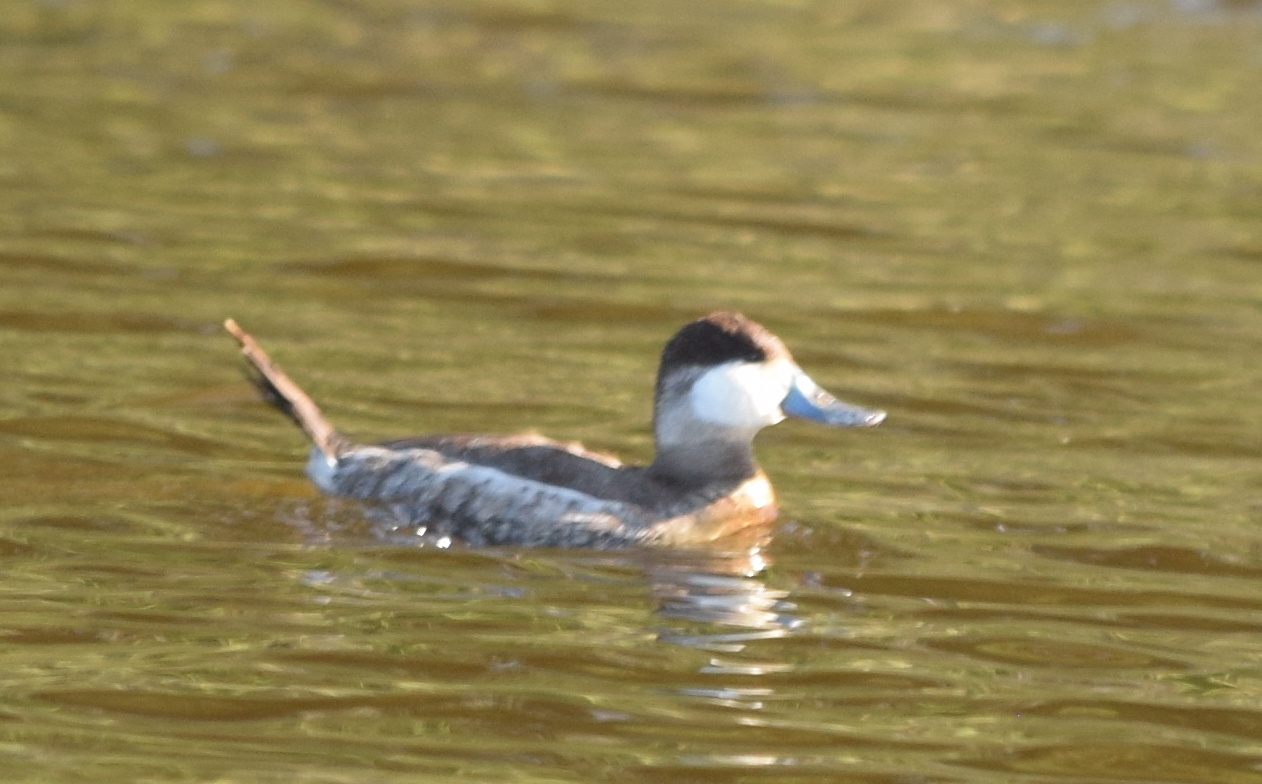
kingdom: Animalia
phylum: Chordata
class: Aves
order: Anseriformes
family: Anatidae
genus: Oxyura
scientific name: Oxyura jamaicensis
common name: Ruddy duck
